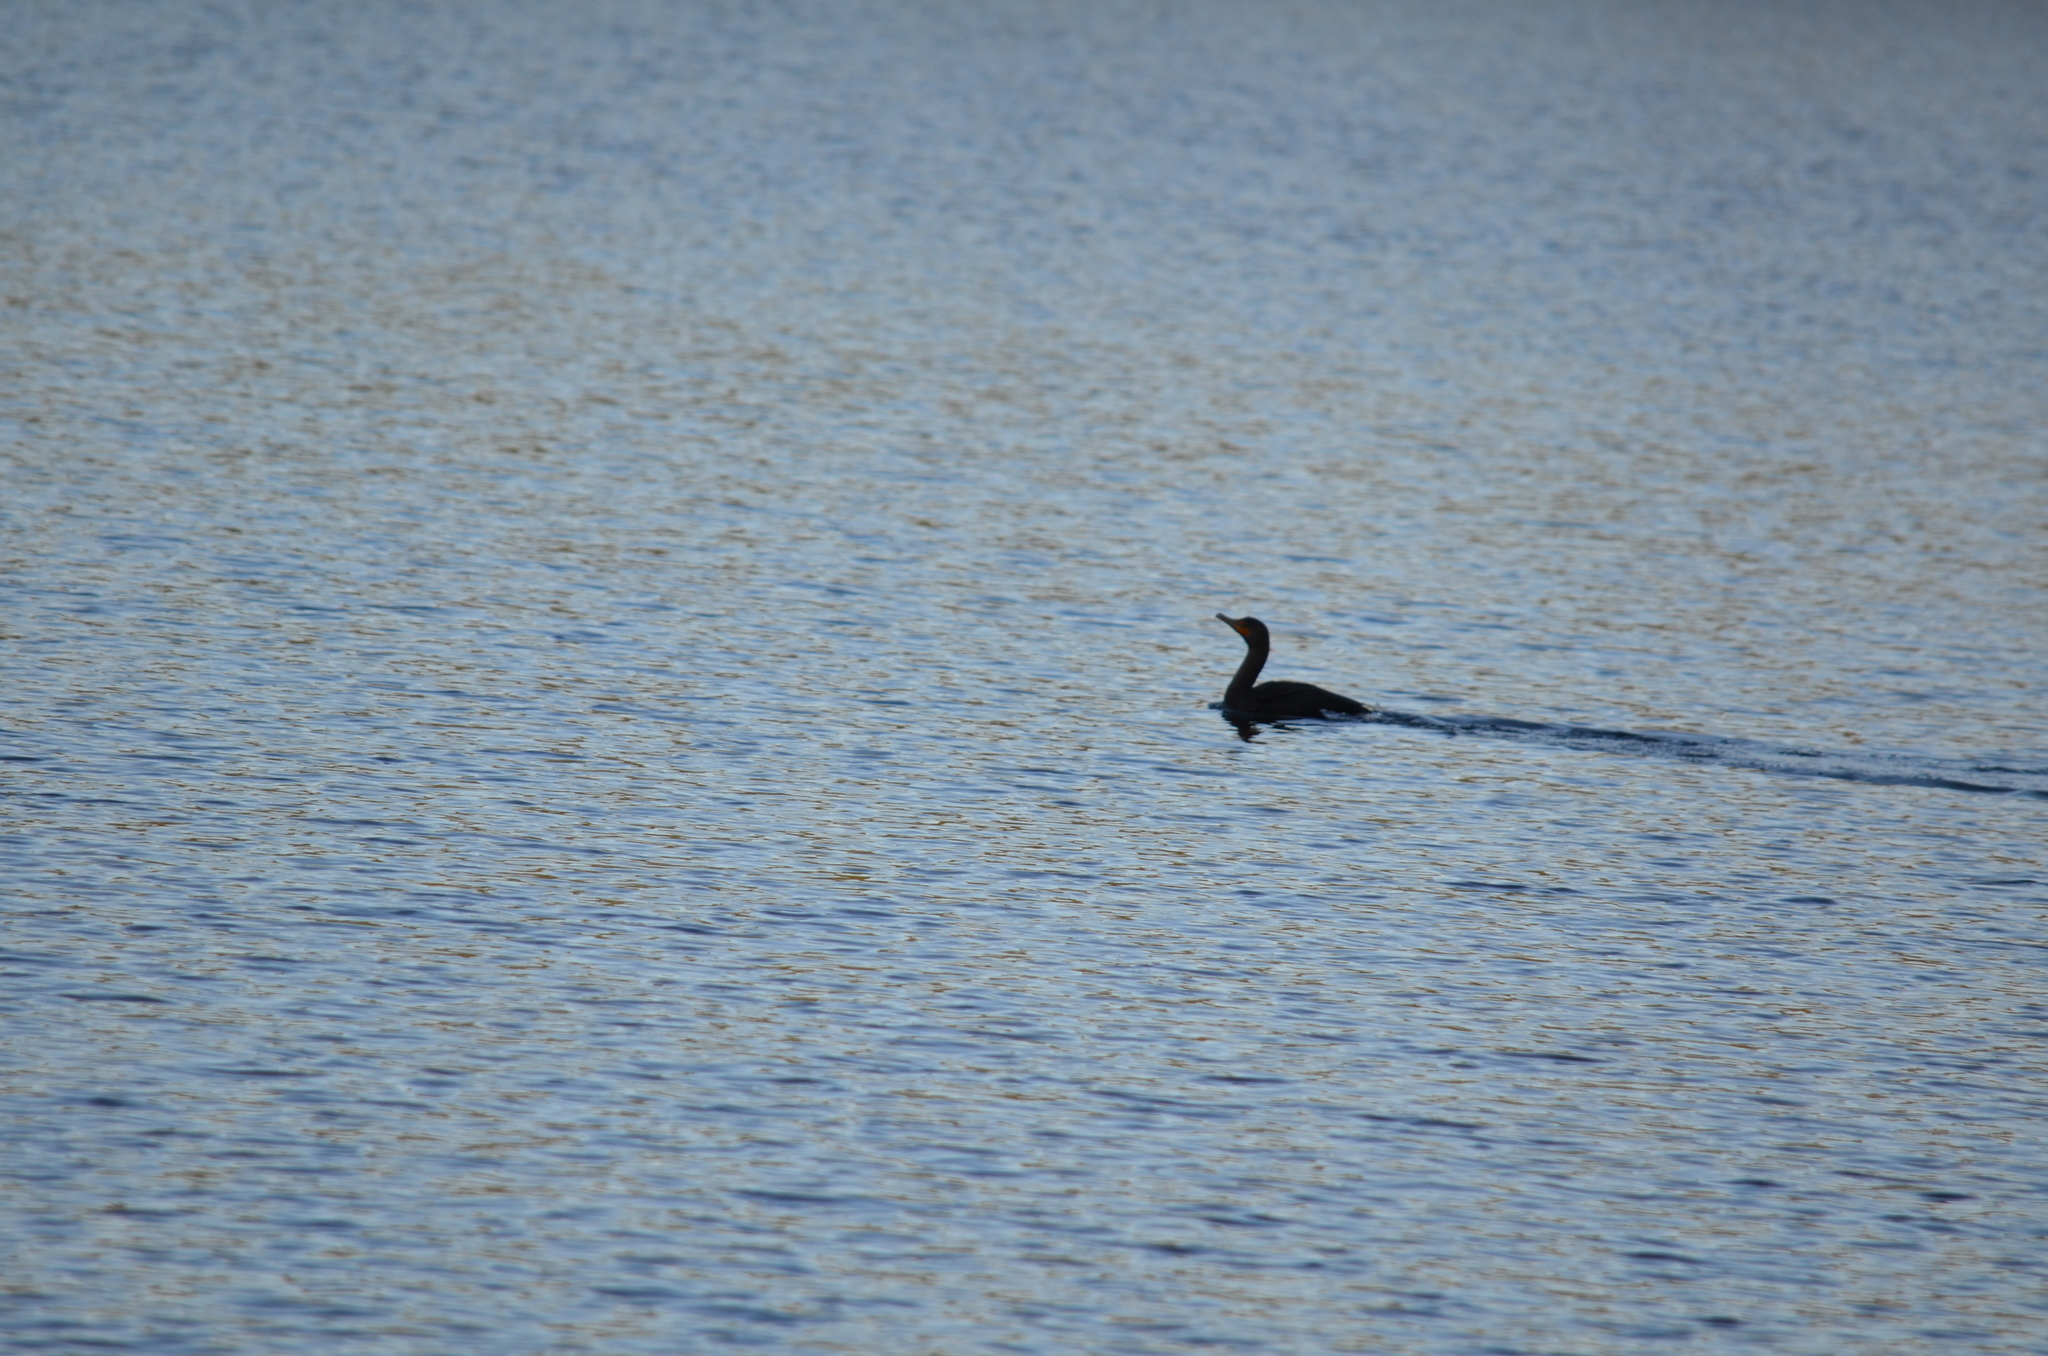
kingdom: Animalia
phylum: Chordata
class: Aves
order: Suliformes
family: Phalacrocoracidae
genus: Phalacrocorax
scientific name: Phalacrocorax auritus
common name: Double-crested cormorant
